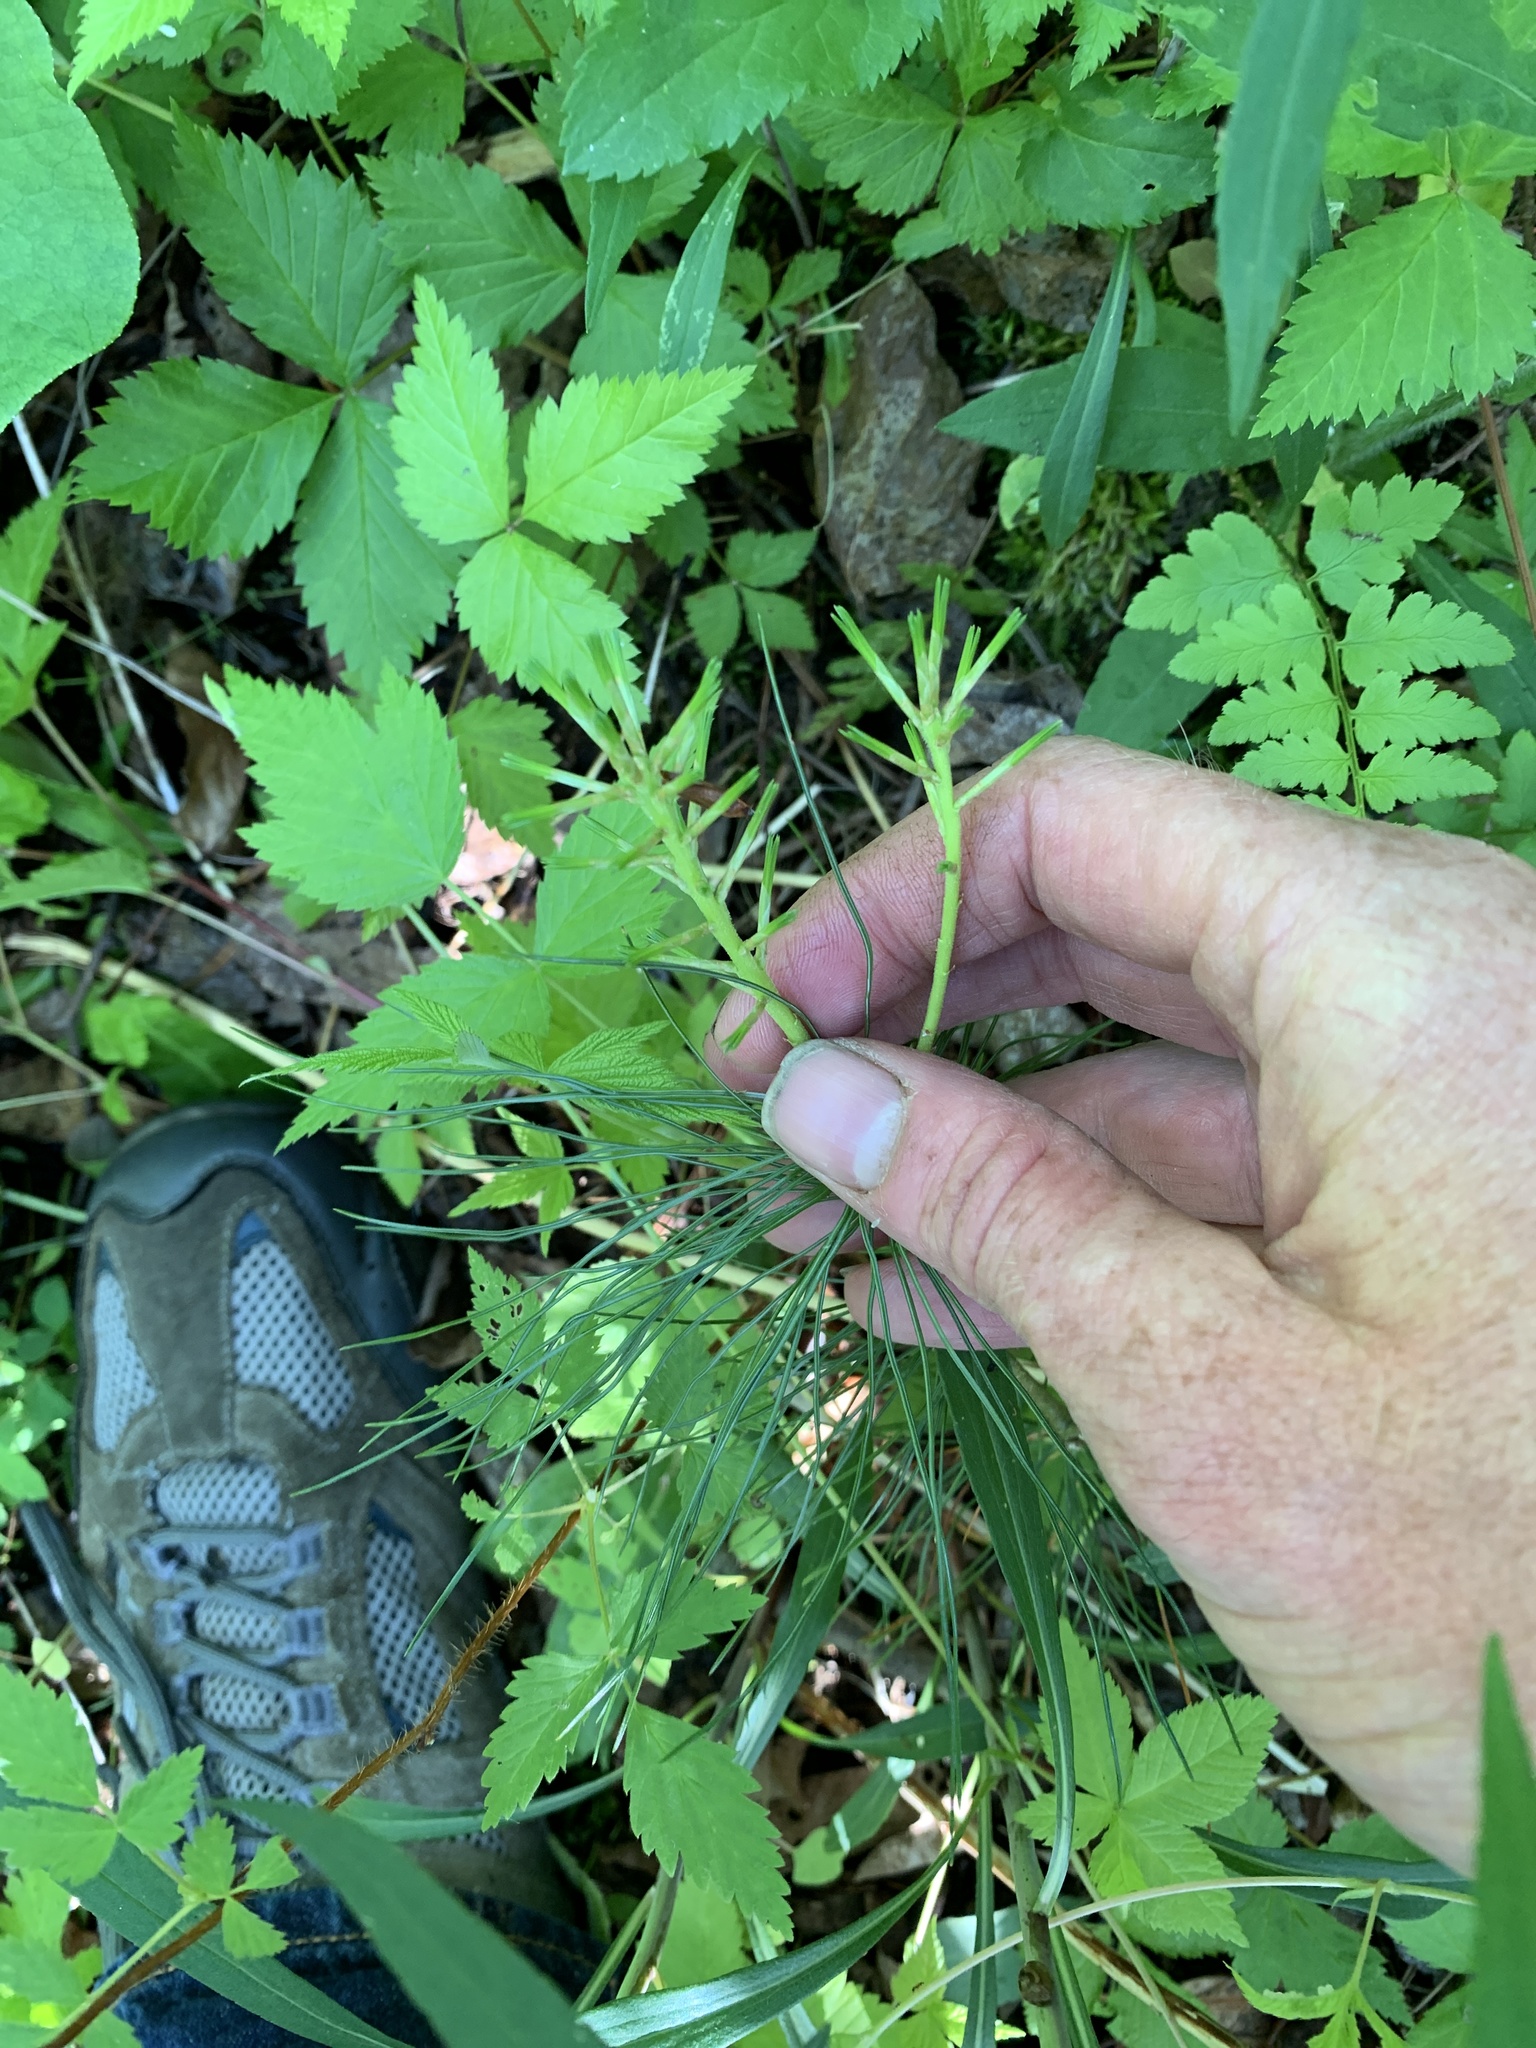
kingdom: Plantae
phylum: Tracheophyta
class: Pinopsida
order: Pinales
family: Pinaceae
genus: Pinus
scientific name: Pinus strobus
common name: Weymouth pine
